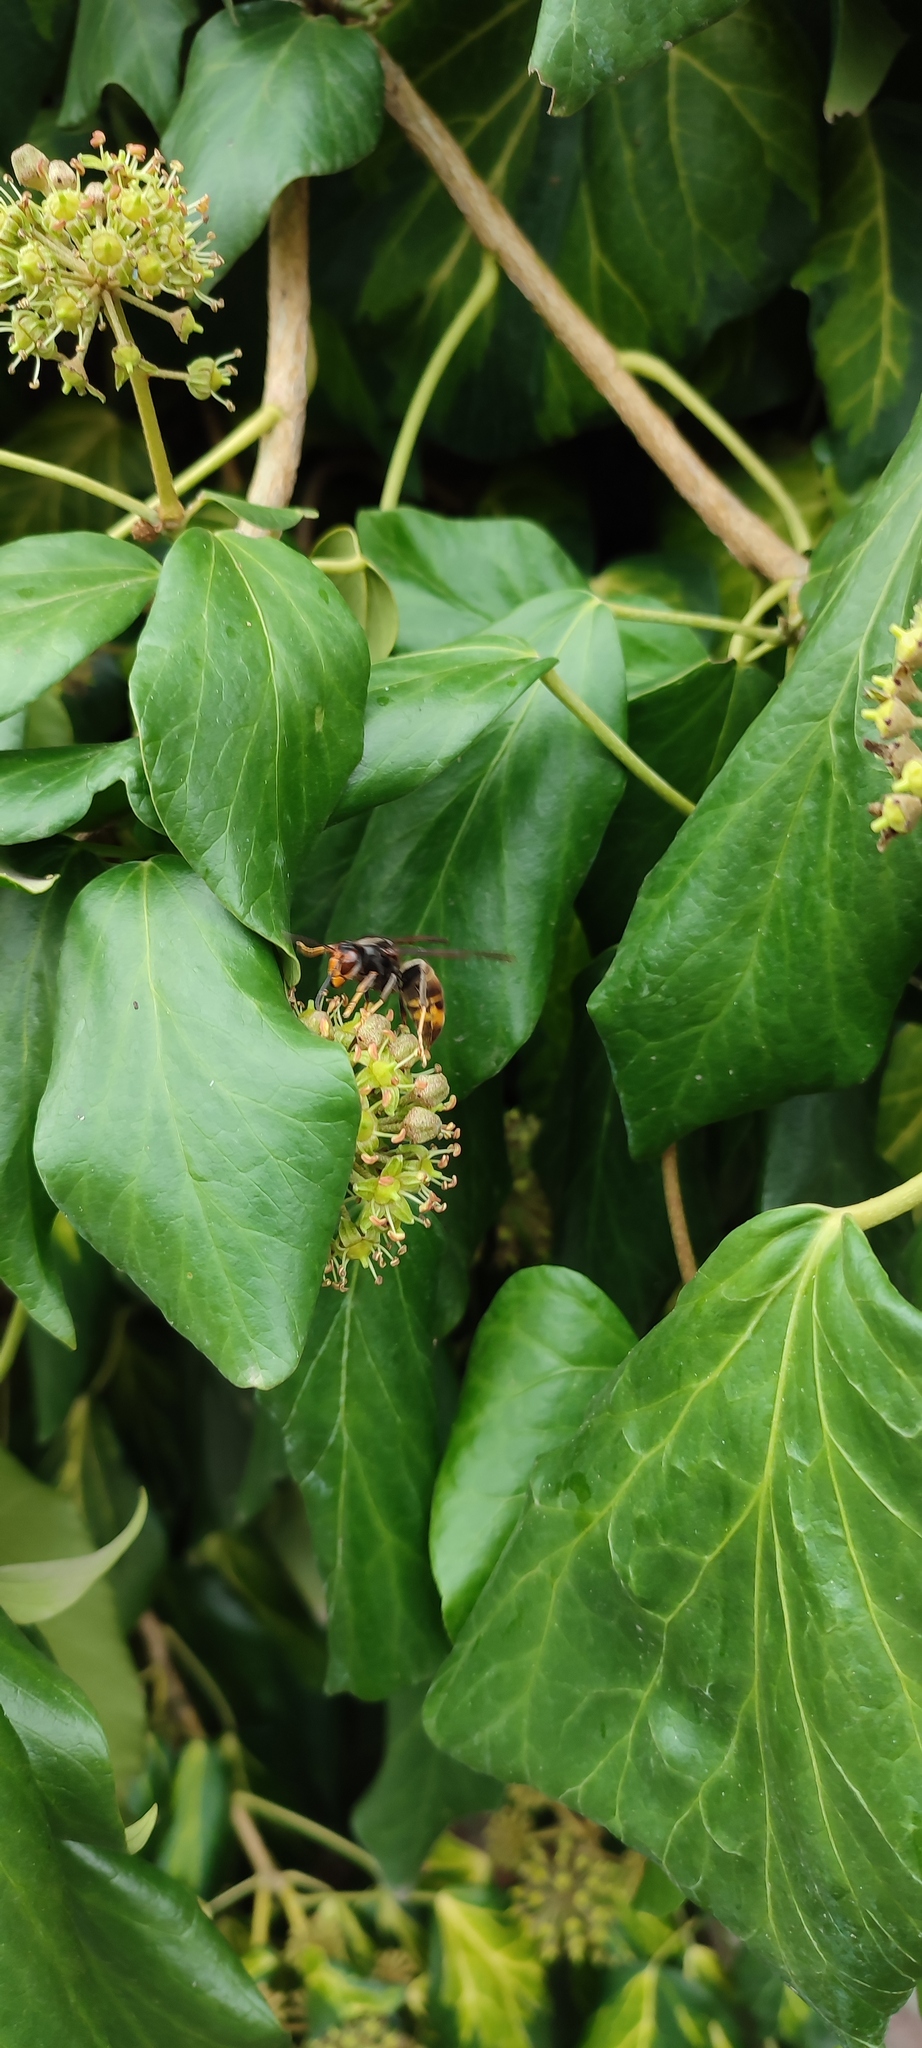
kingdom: Animalia
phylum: Arthropoda
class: Insecta
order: Hymenoptera
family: Vespidae
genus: Vespa
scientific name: Vespa velutina
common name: Asian hornet
